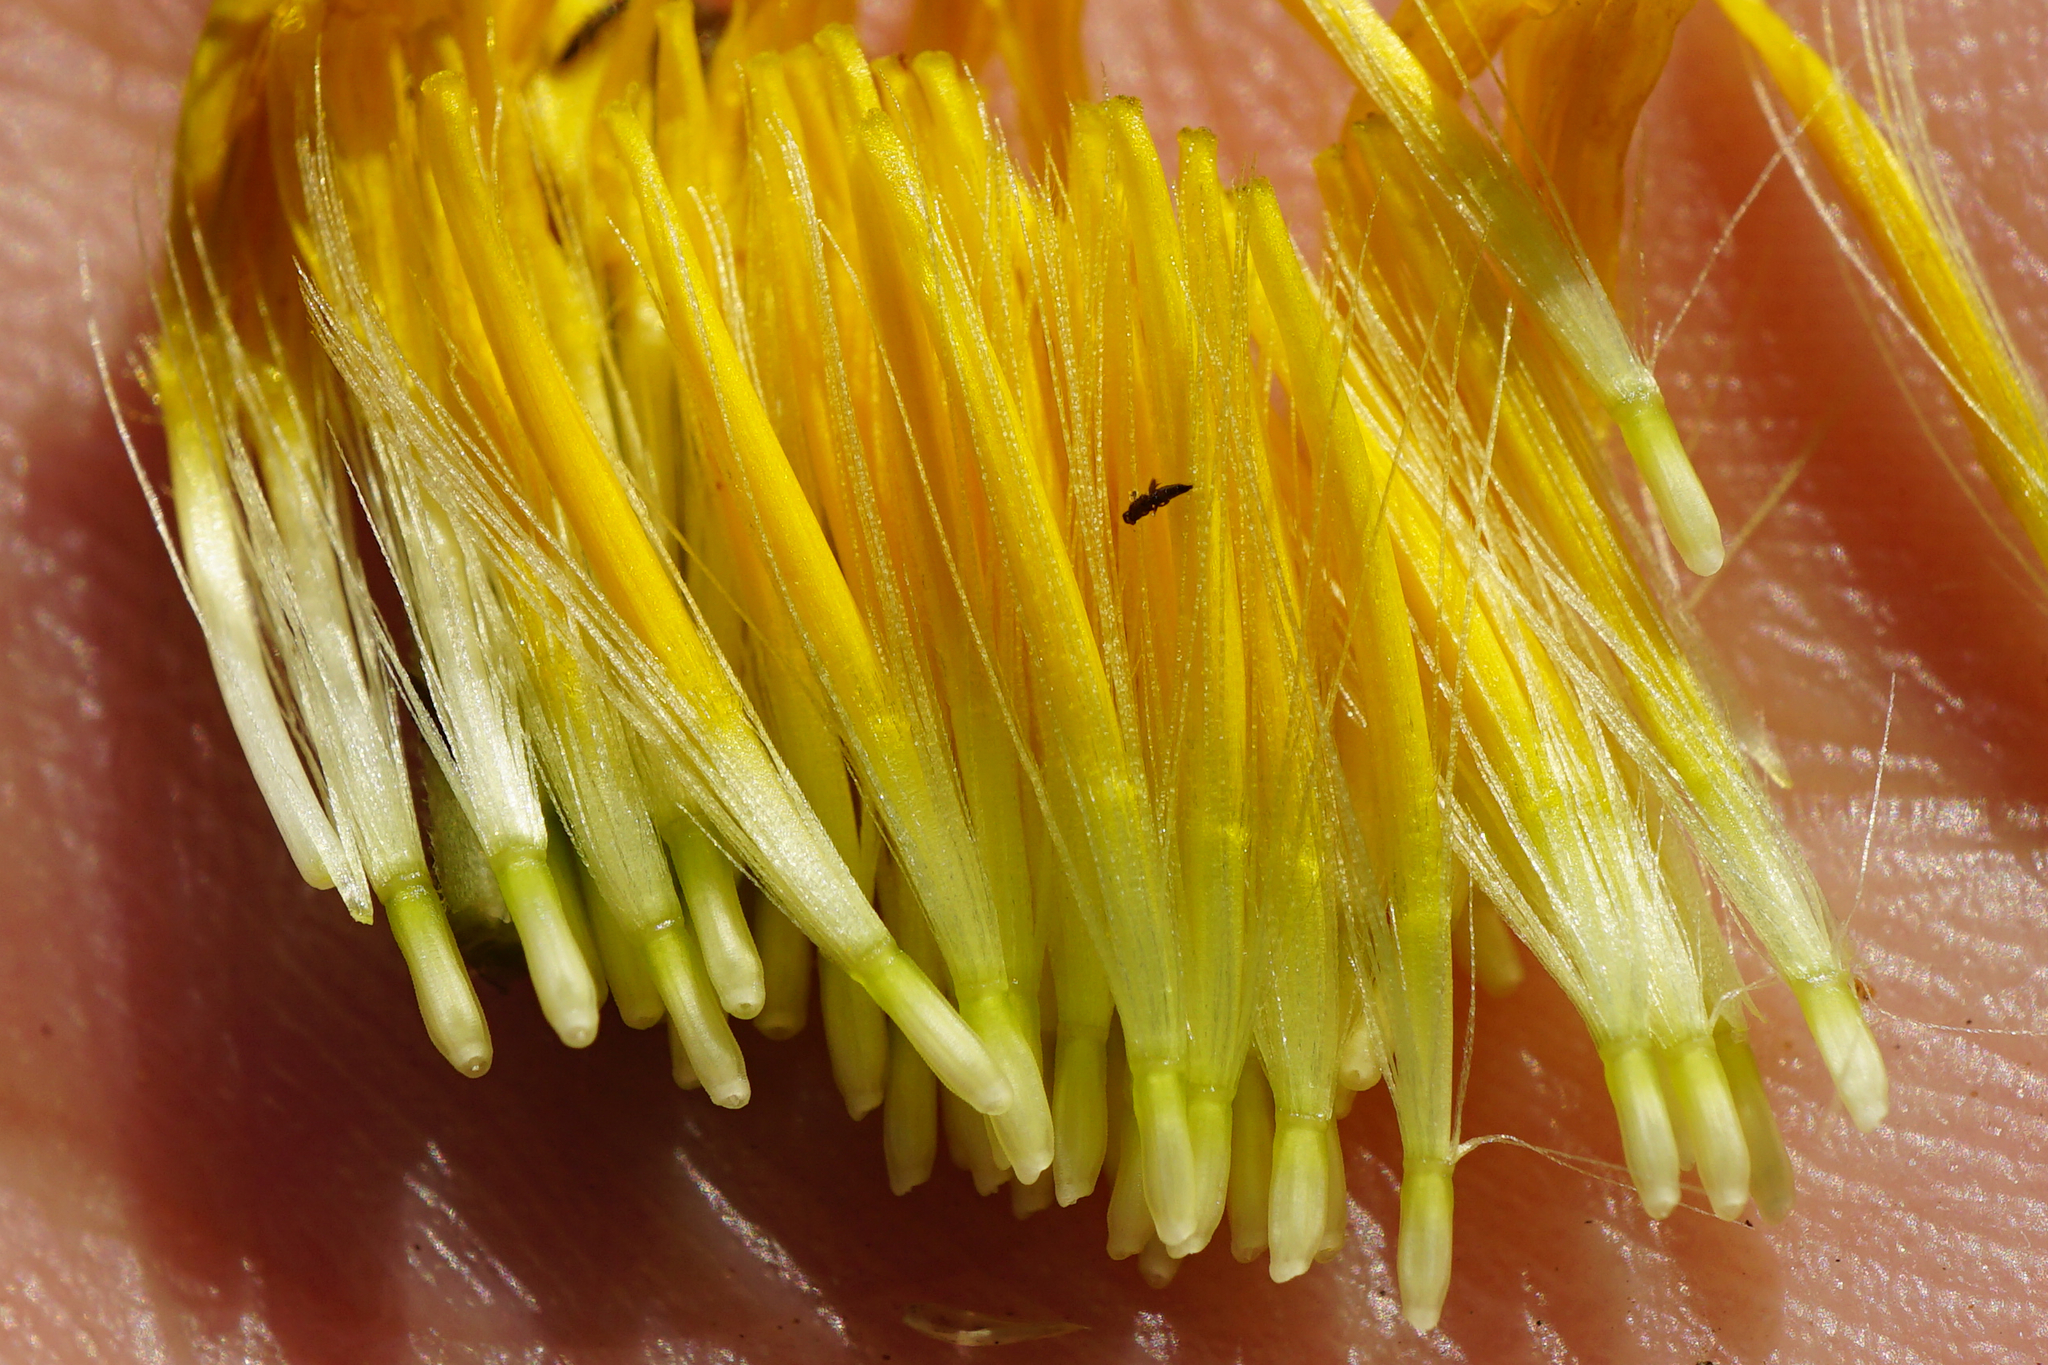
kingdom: Plantae
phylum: Tracheophyta
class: Magnoliopsida
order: Asterales
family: Asteraceae
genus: Leontodon
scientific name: Leontodon hispidus
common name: Rough hawkbit
